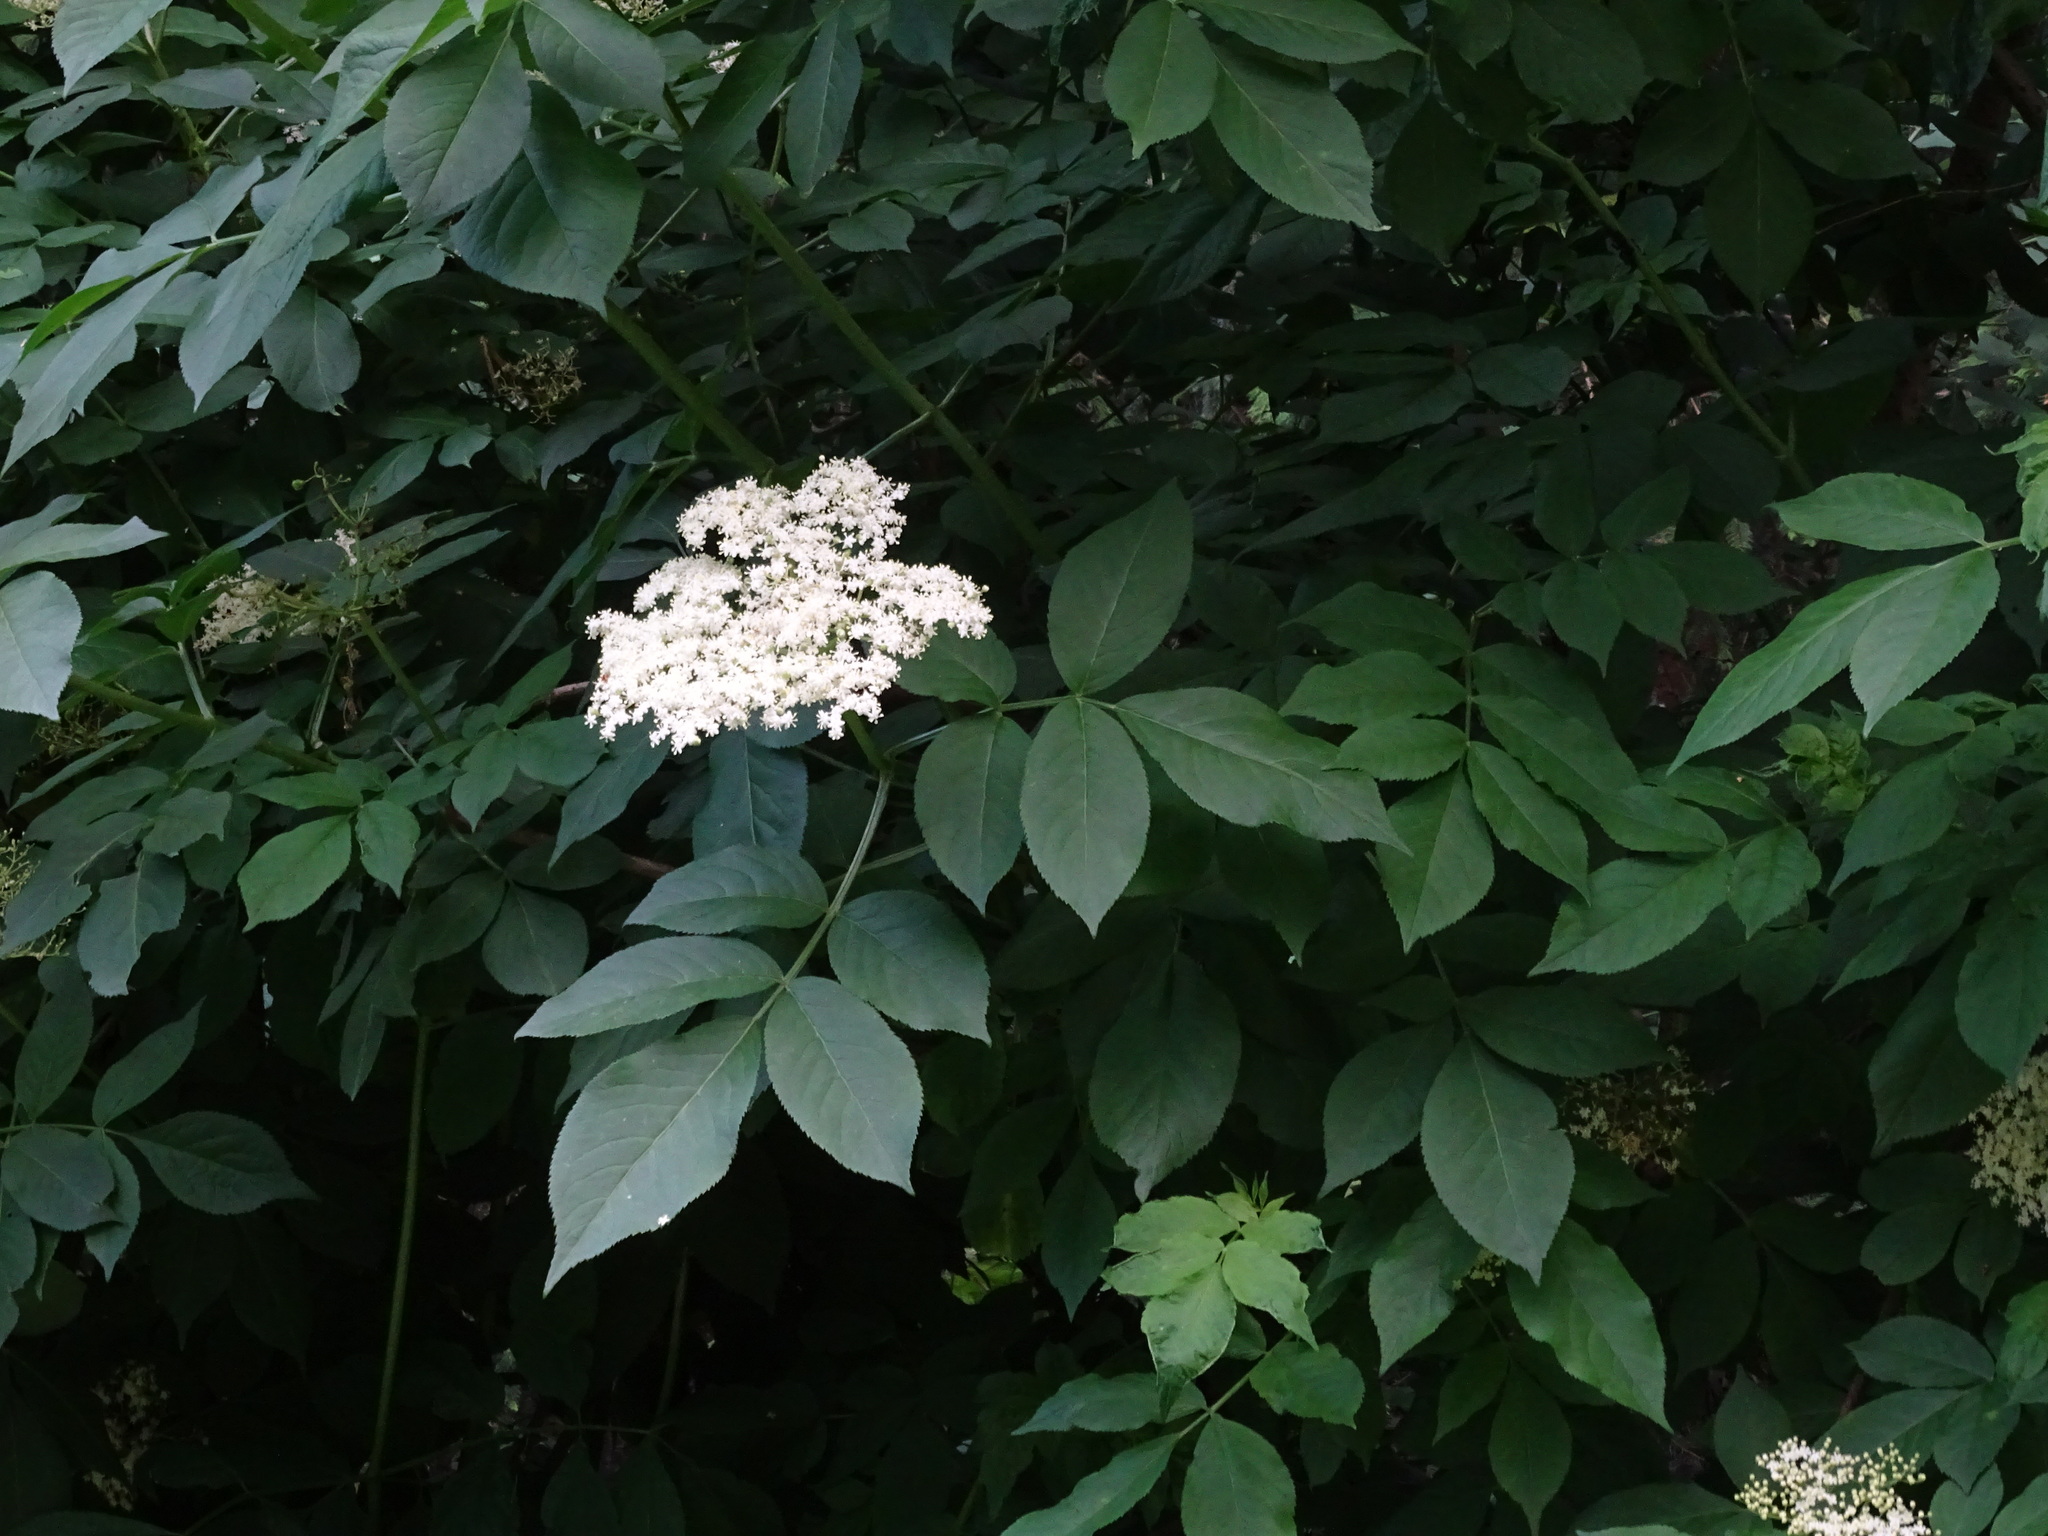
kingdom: Plantae
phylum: Tracheophyta
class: Magnoliopsida
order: Dipsacales
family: Viburnaceae
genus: Sambucus
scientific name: Sambucus nigra
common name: Elder
